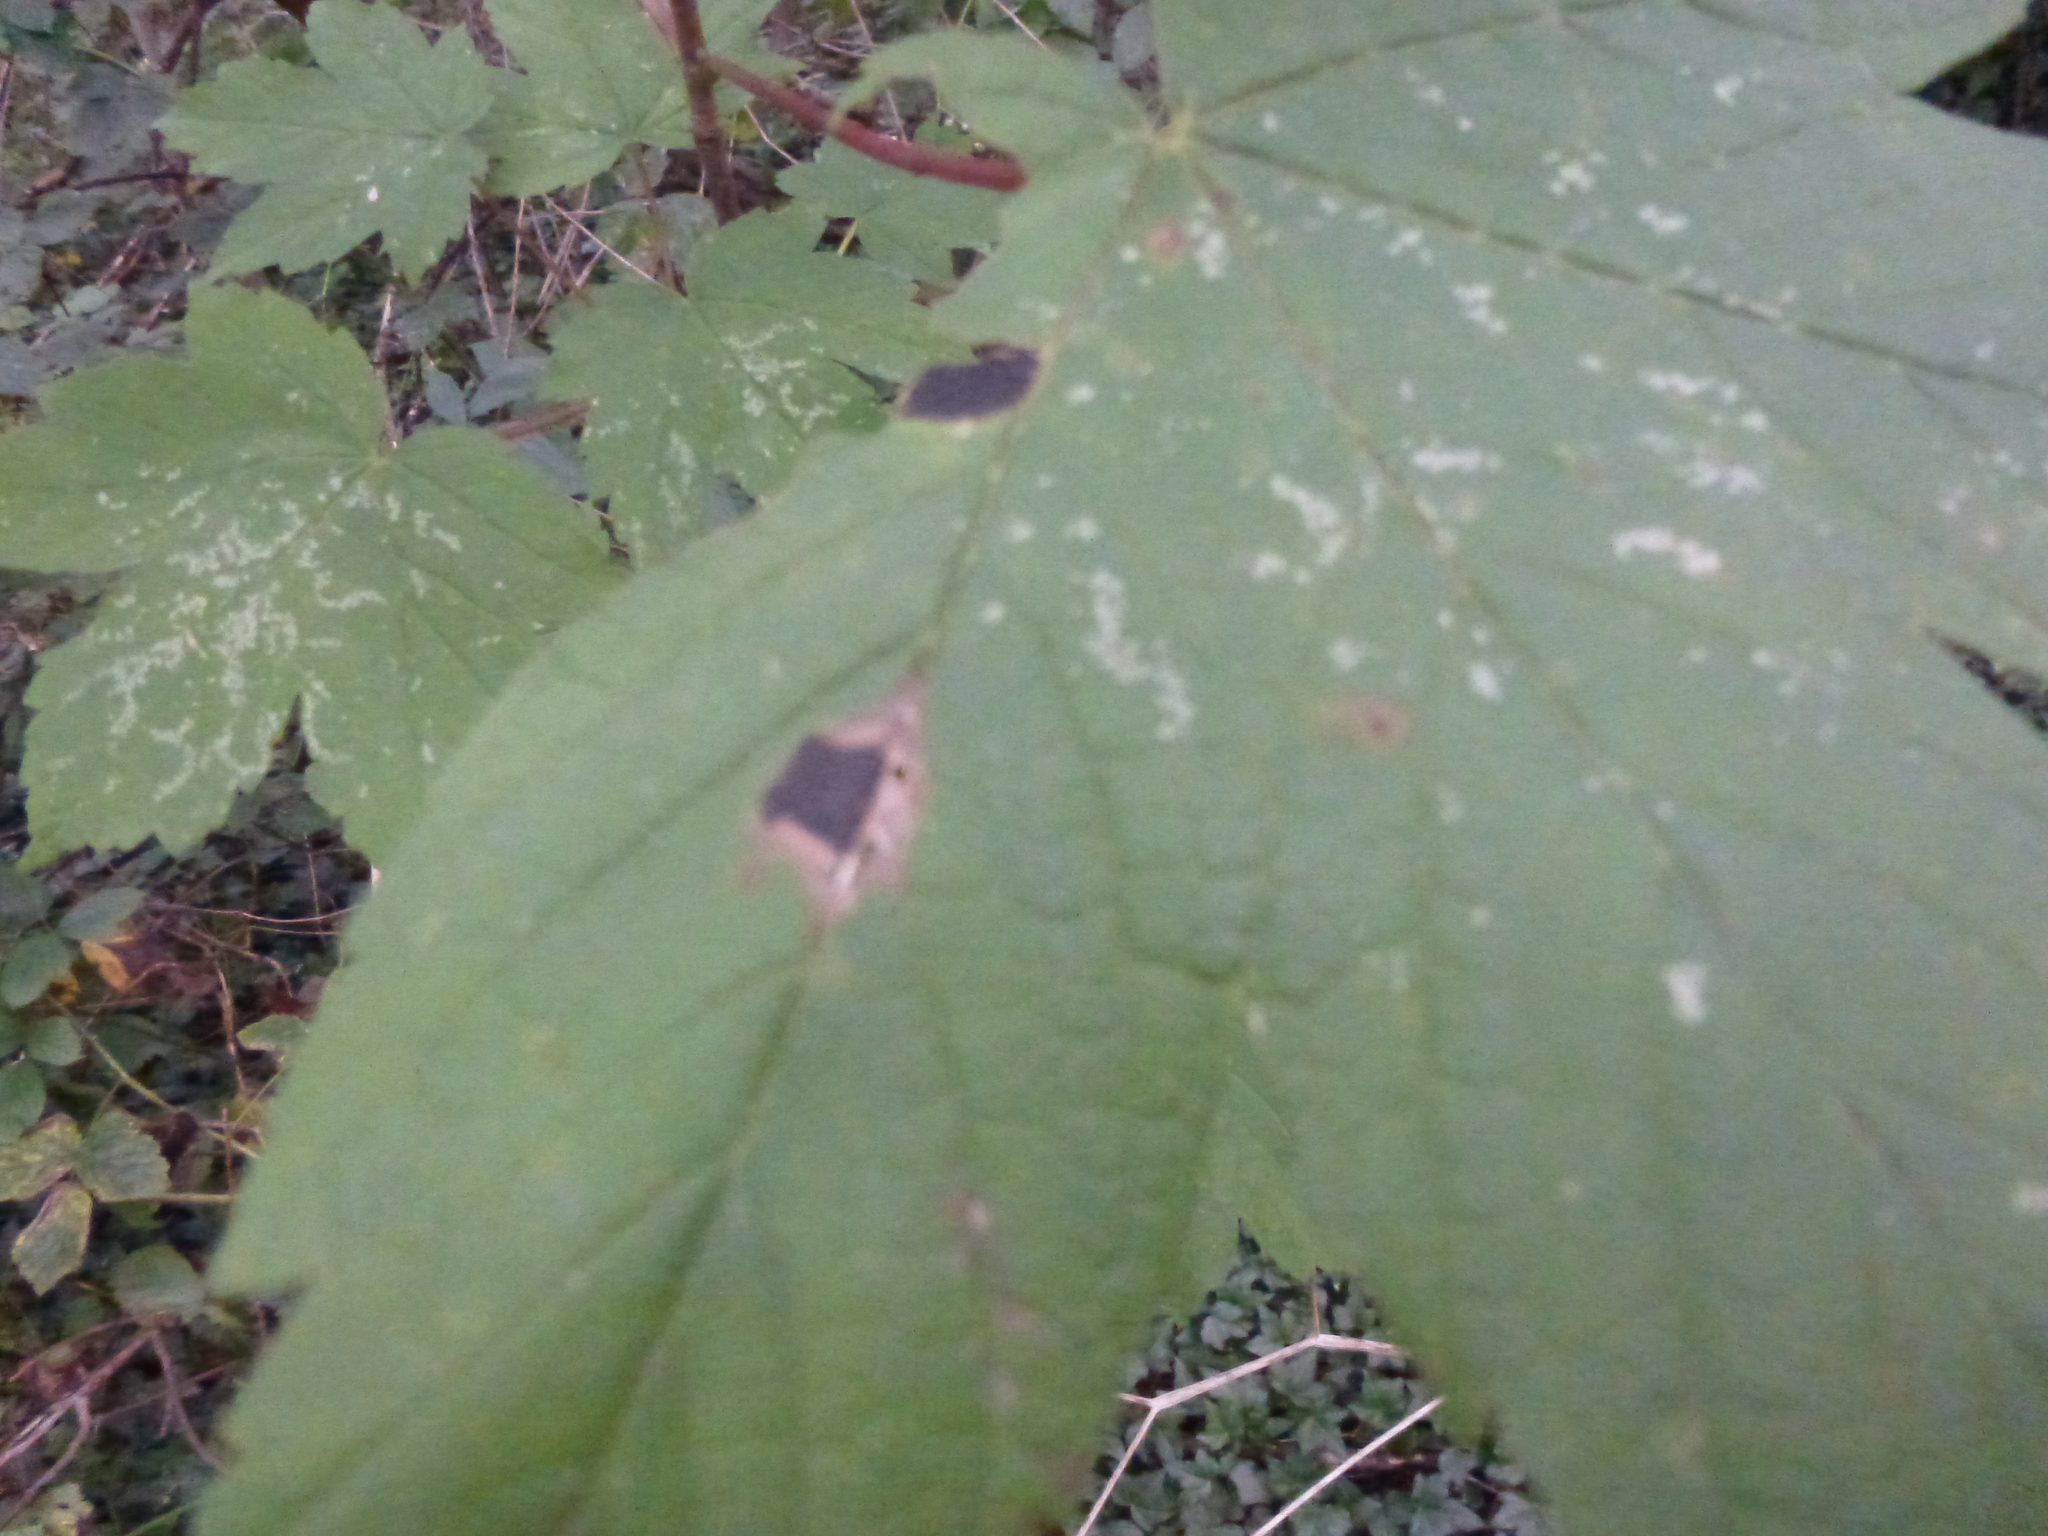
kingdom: Fungi
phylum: Ascomycota
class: Leotiomycetes
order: Rhytismatales
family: Rhytismataceae
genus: Rhytisma
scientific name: Rhytisma acerinum
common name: European tar spot
